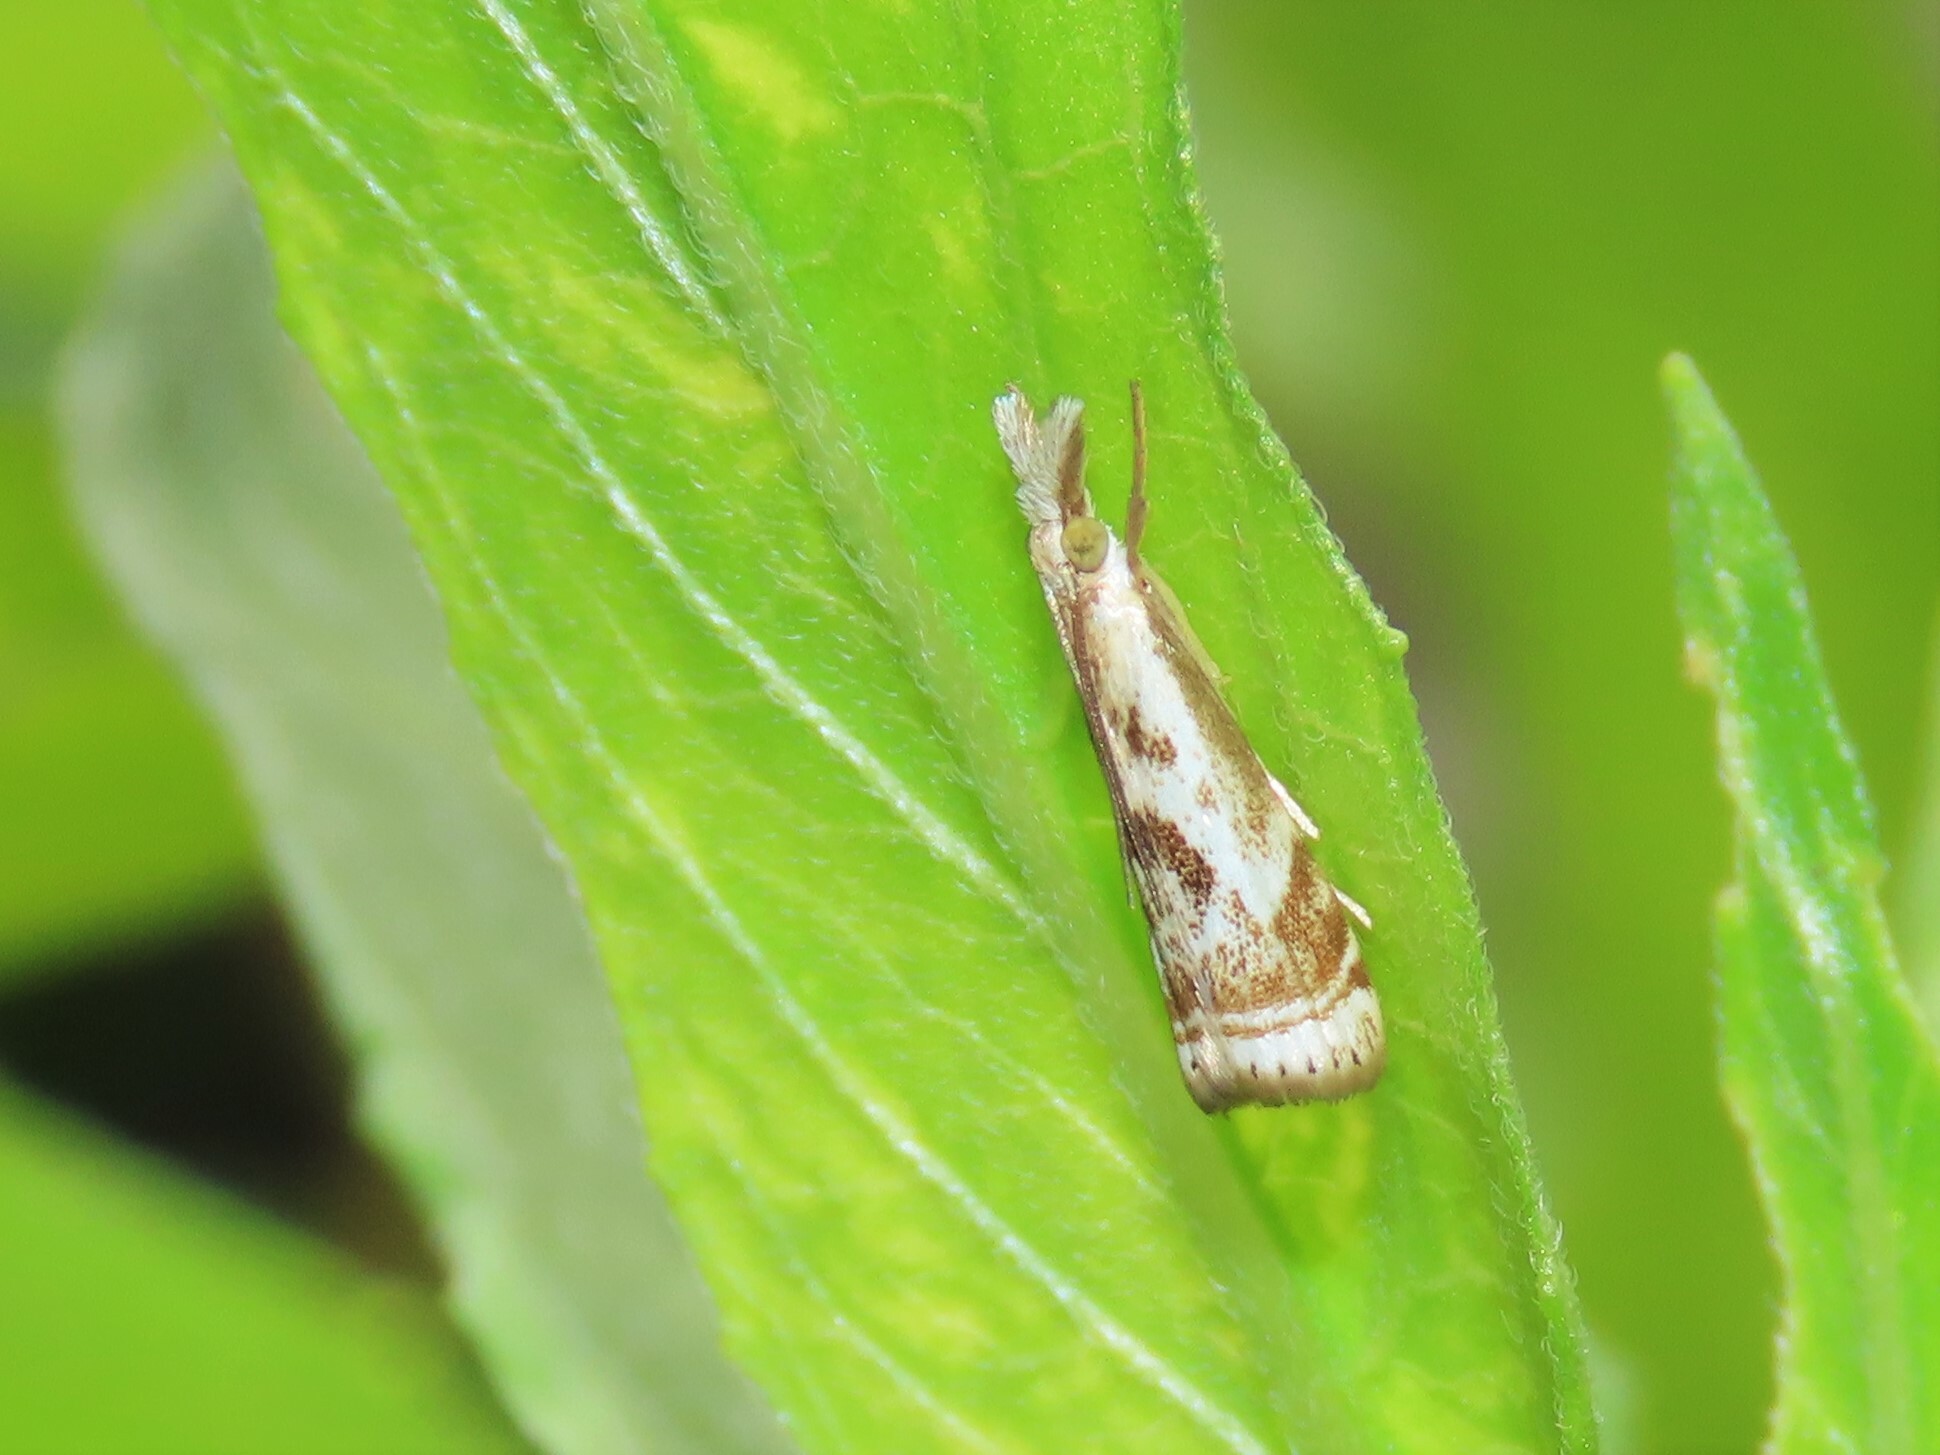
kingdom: Animalia
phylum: Arthropoda
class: Insecta
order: Lepidoptera
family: Crambidae
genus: Microcrambus
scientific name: Microcrambus elegans
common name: Elegant grass-veneer
